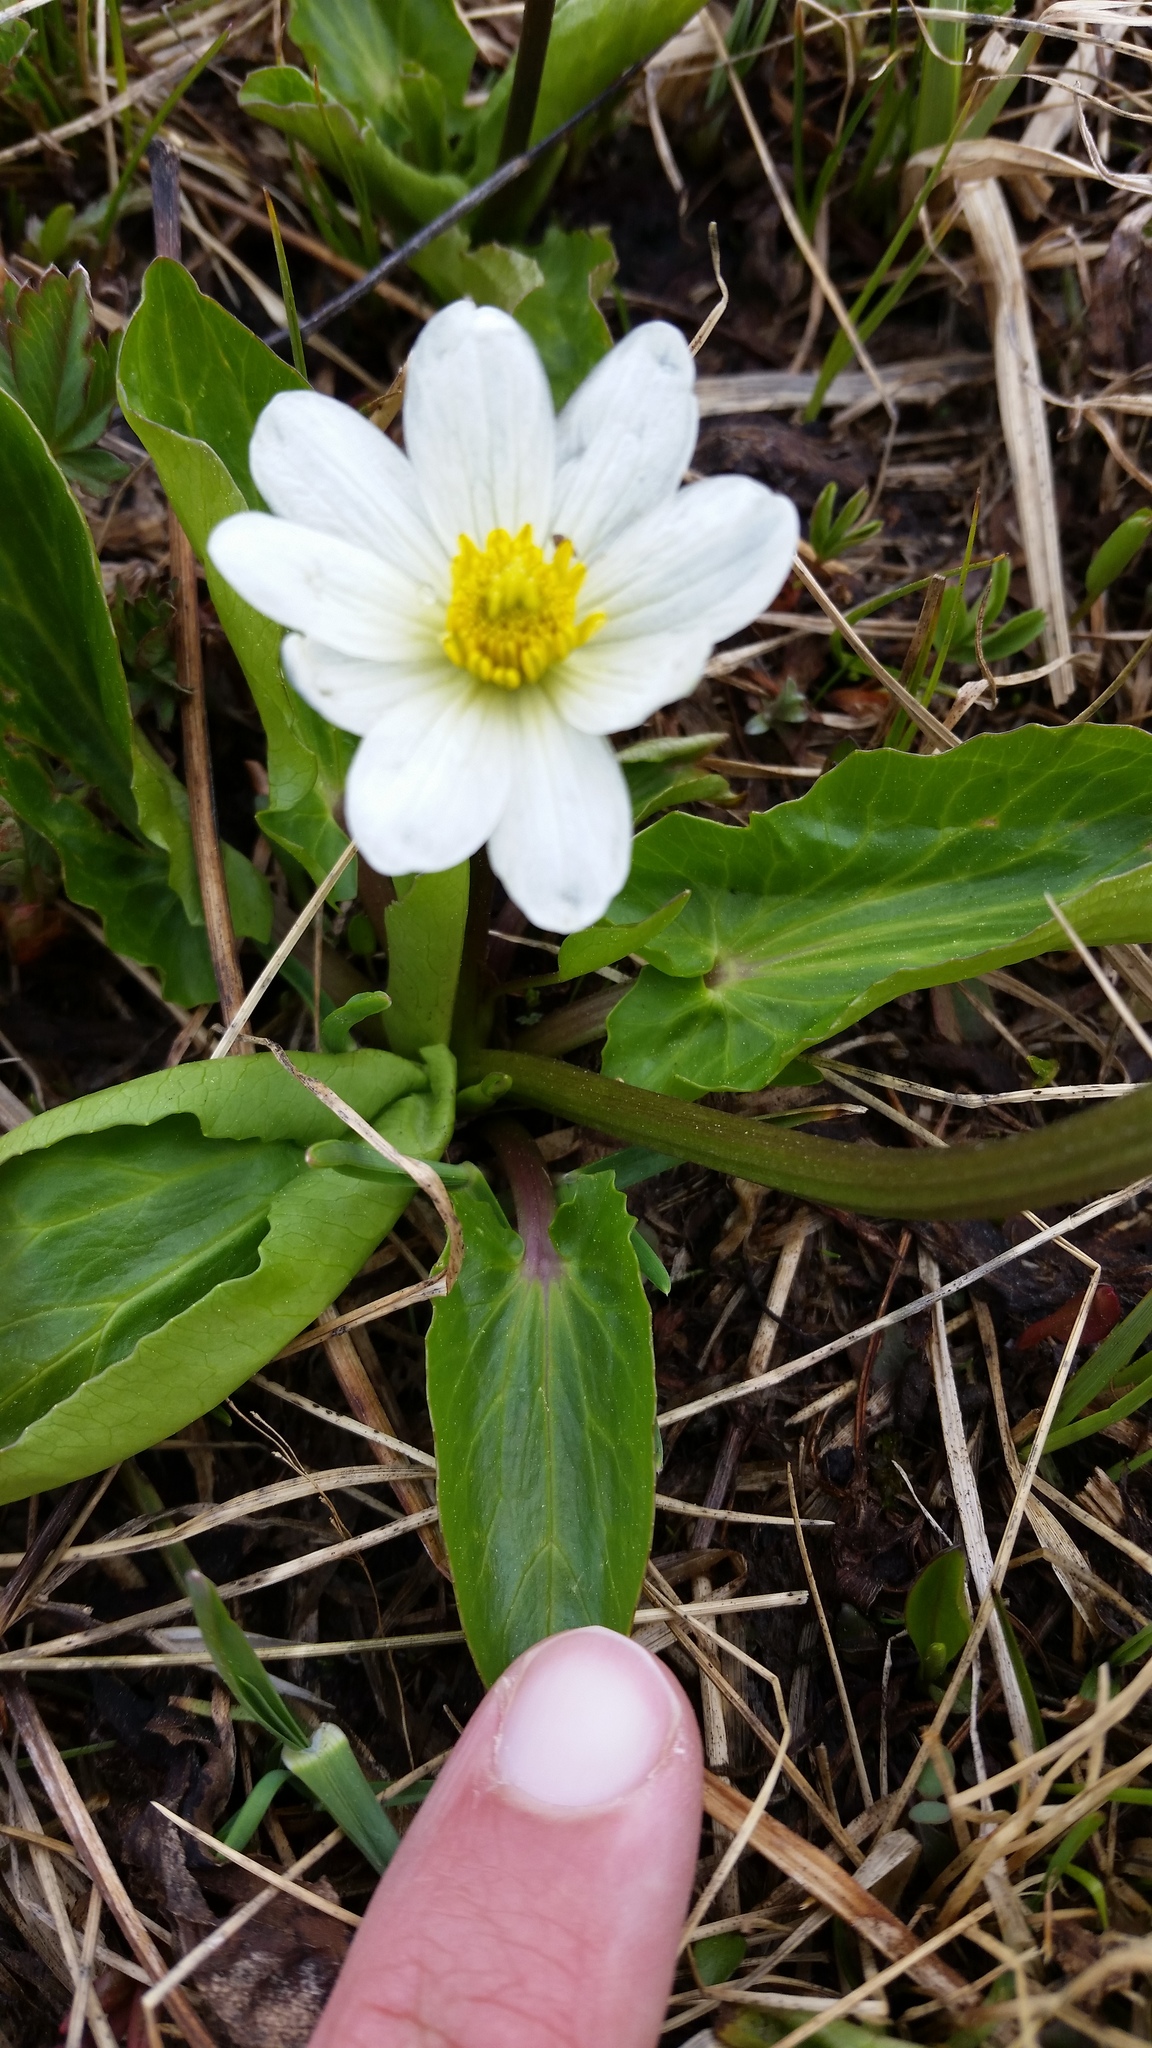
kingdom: Plantae
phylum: Tracheophyta
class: Magnoliopsida
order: Ranunculales
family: Ranunculaceae
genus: Caltha
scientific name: Caltha leptosepala
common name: Elkslip
